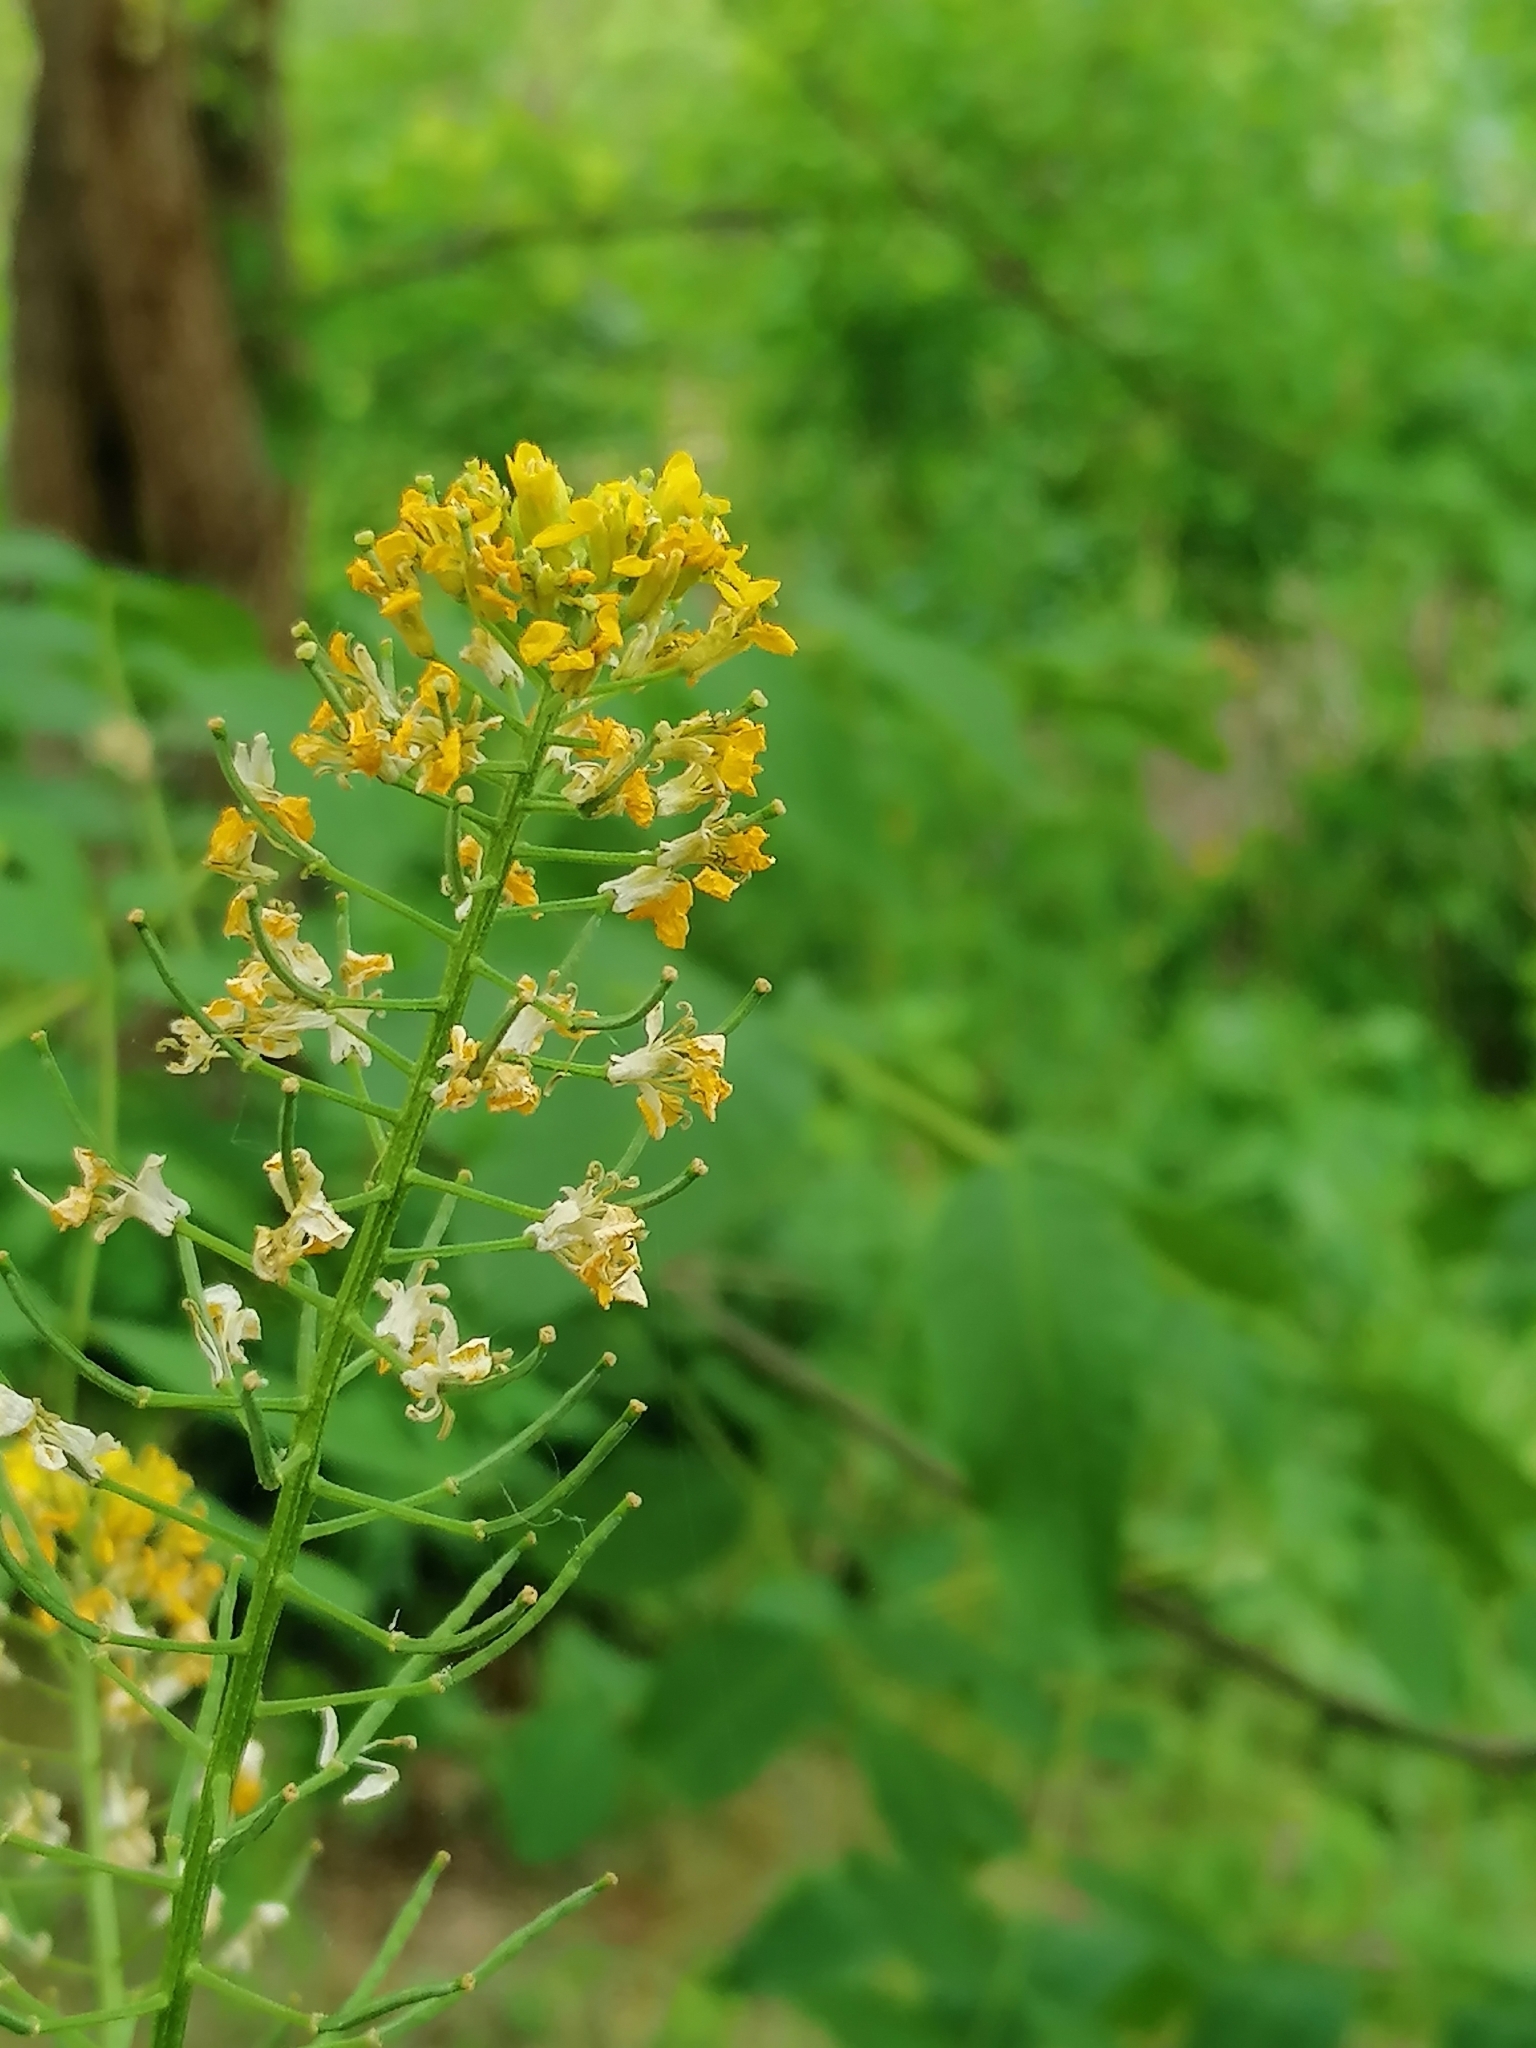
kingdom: Plantae
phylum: Tracheophyta
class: Magnoliopsida
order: Brassicales
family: Brassicaceae
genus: Erysimum
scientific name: Erysimum cheiranthoides
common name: Treacle mustard
